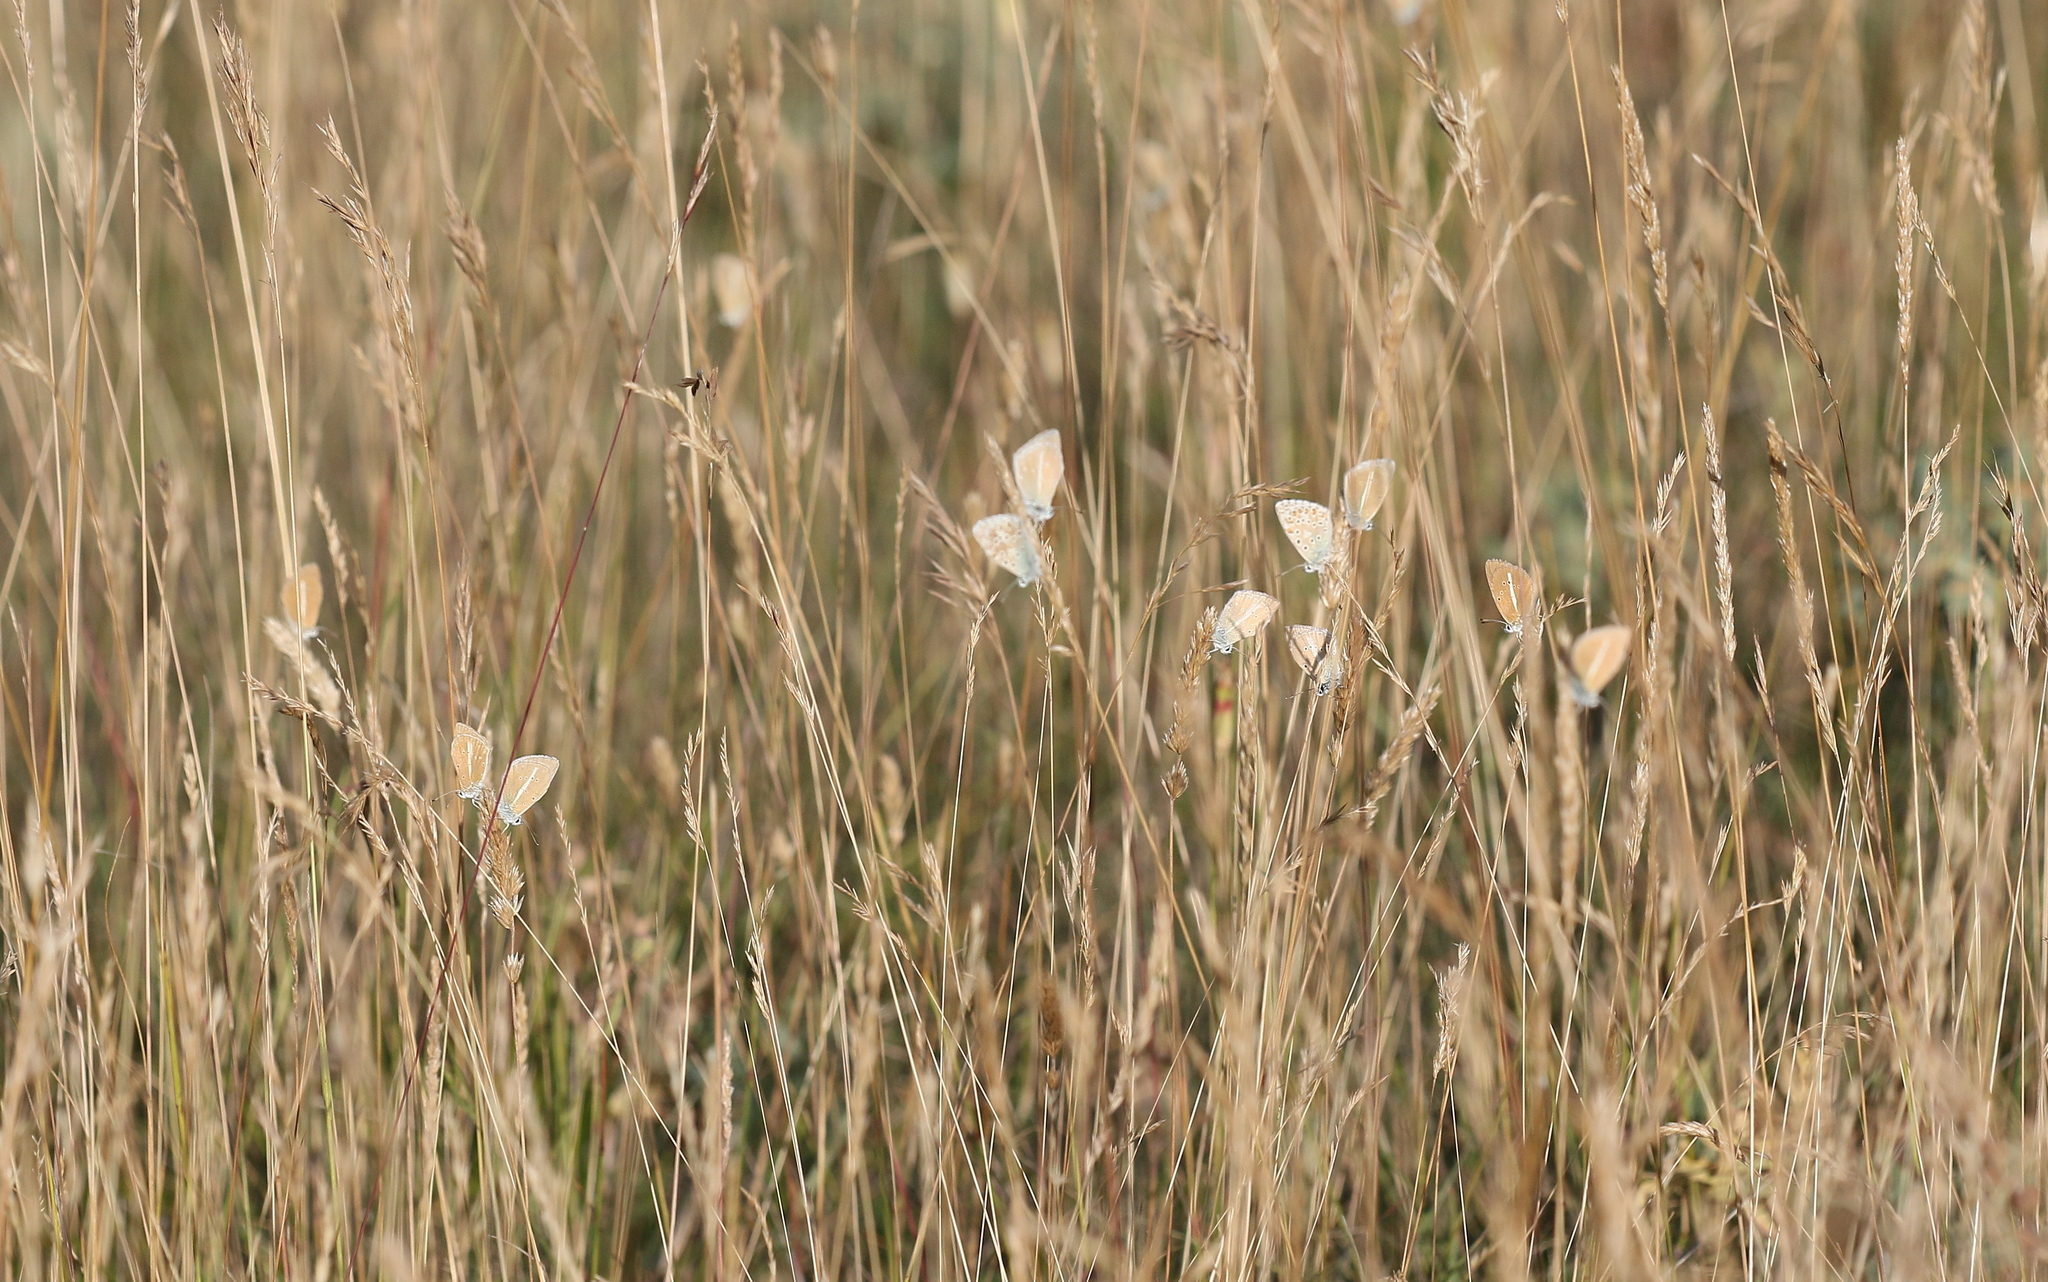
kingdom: Animalia
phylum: Arthropoda
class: Insecta
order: Lepidoptera
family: Lycaenidae
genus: Agrodiaetus
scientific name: Agrodiaetus damon
